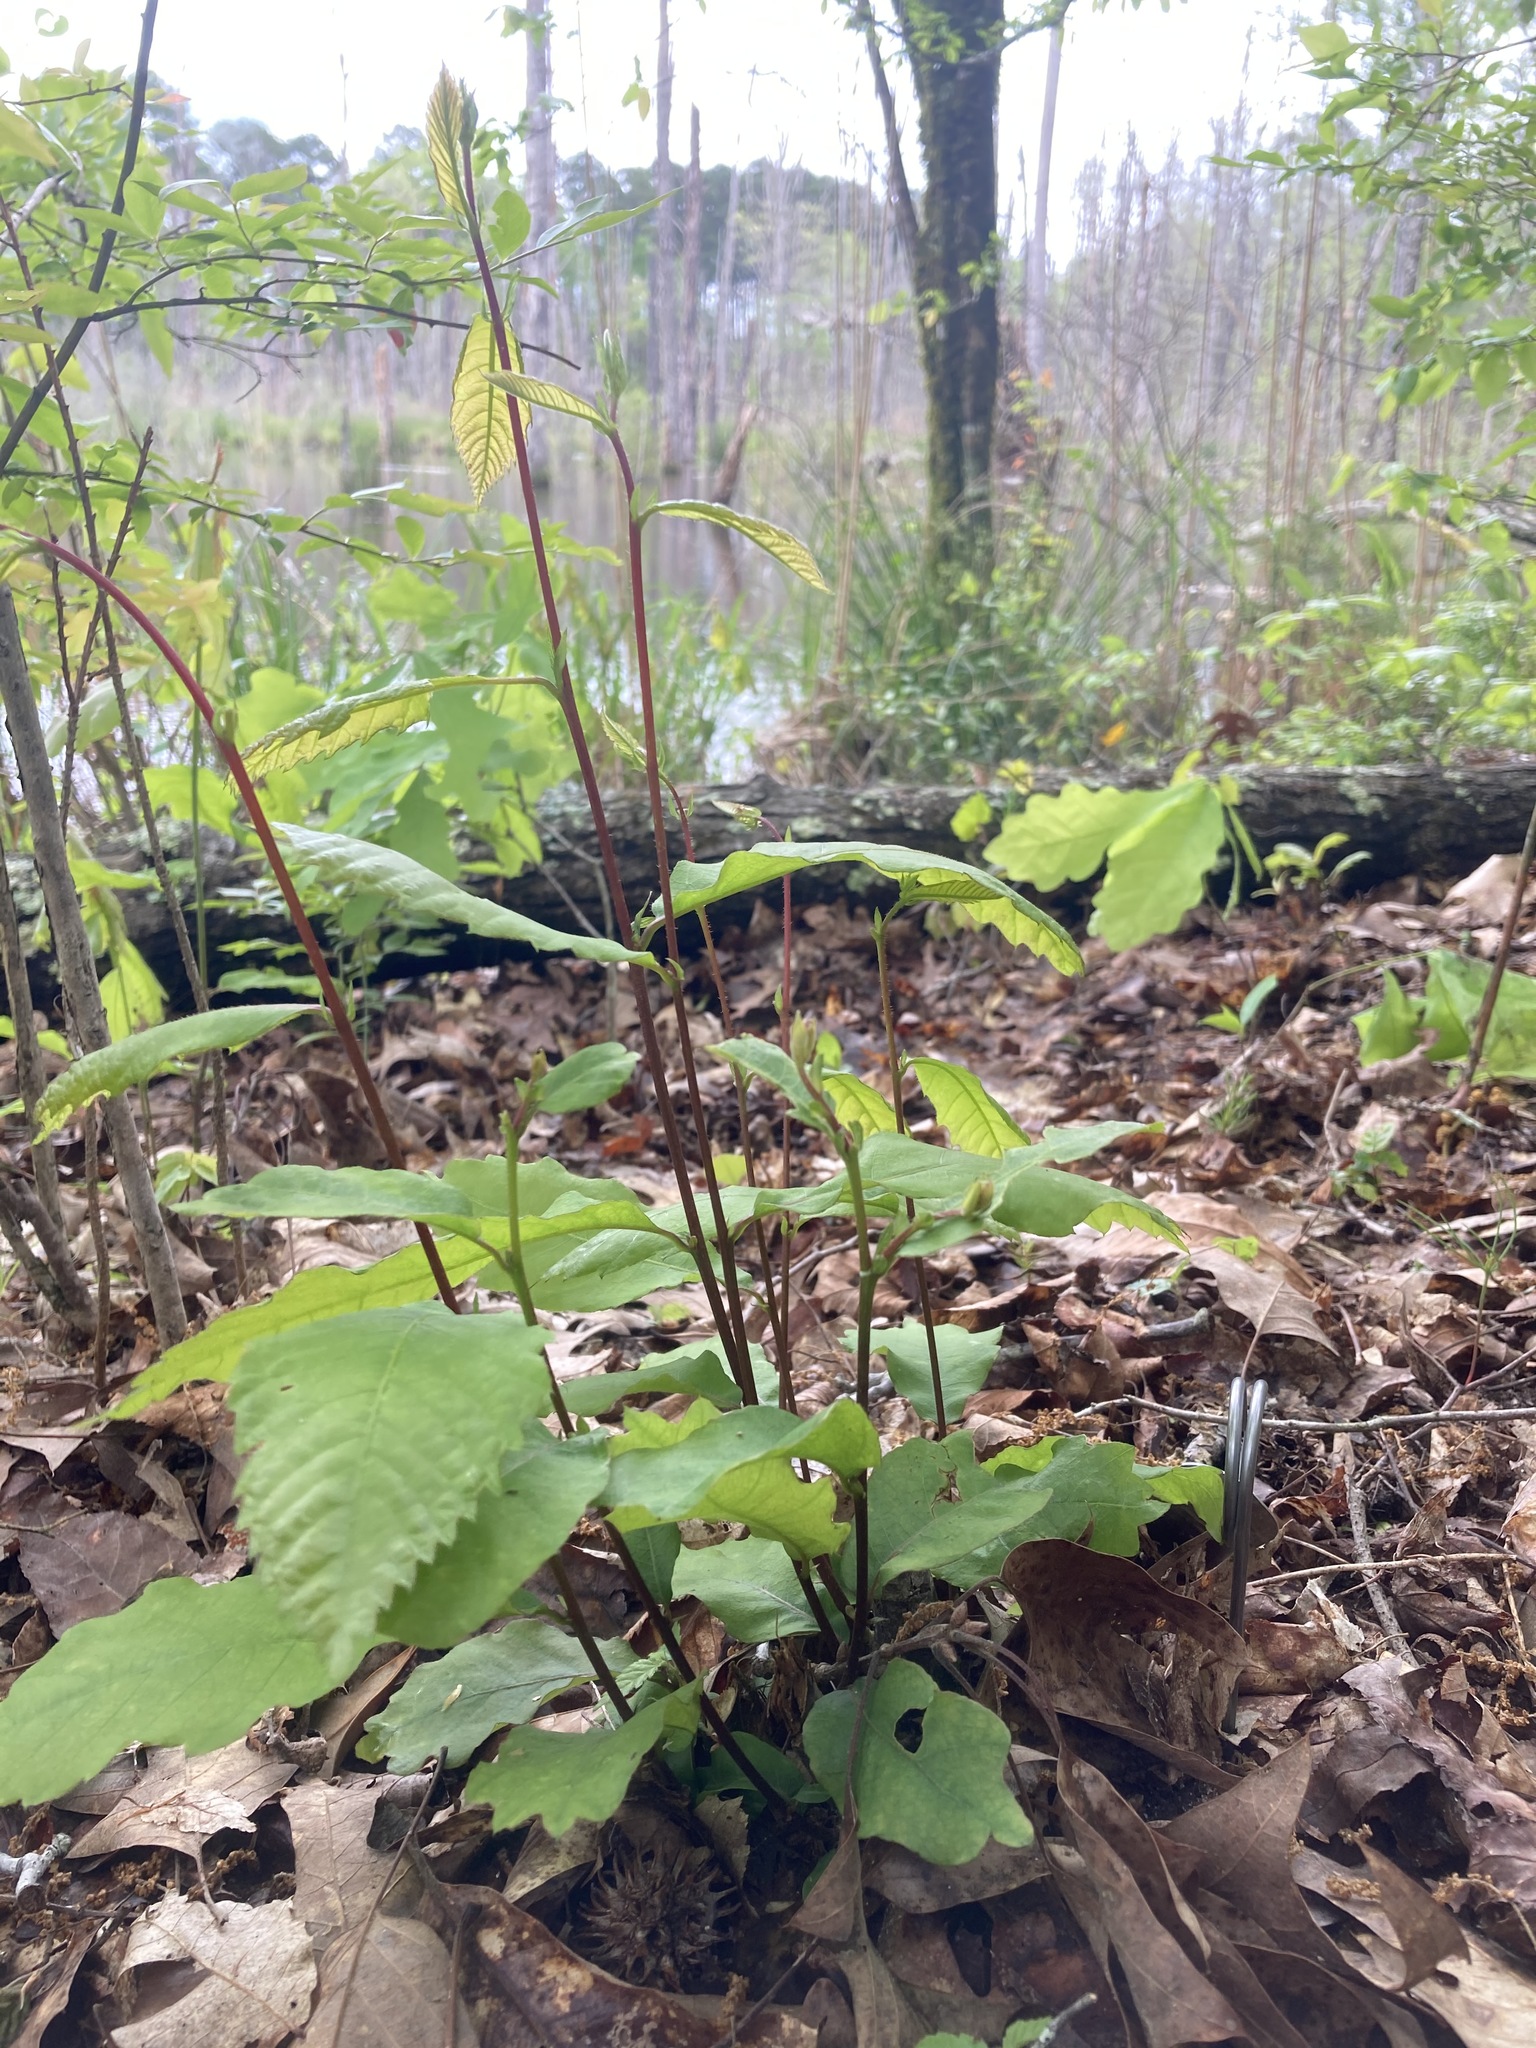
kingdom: Plantae
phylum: Tracheophyta
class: Magnoliopsida
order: Fagales
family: Fagaceae
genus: Castanea
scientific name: Castanea pumila
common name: Chinkapin
